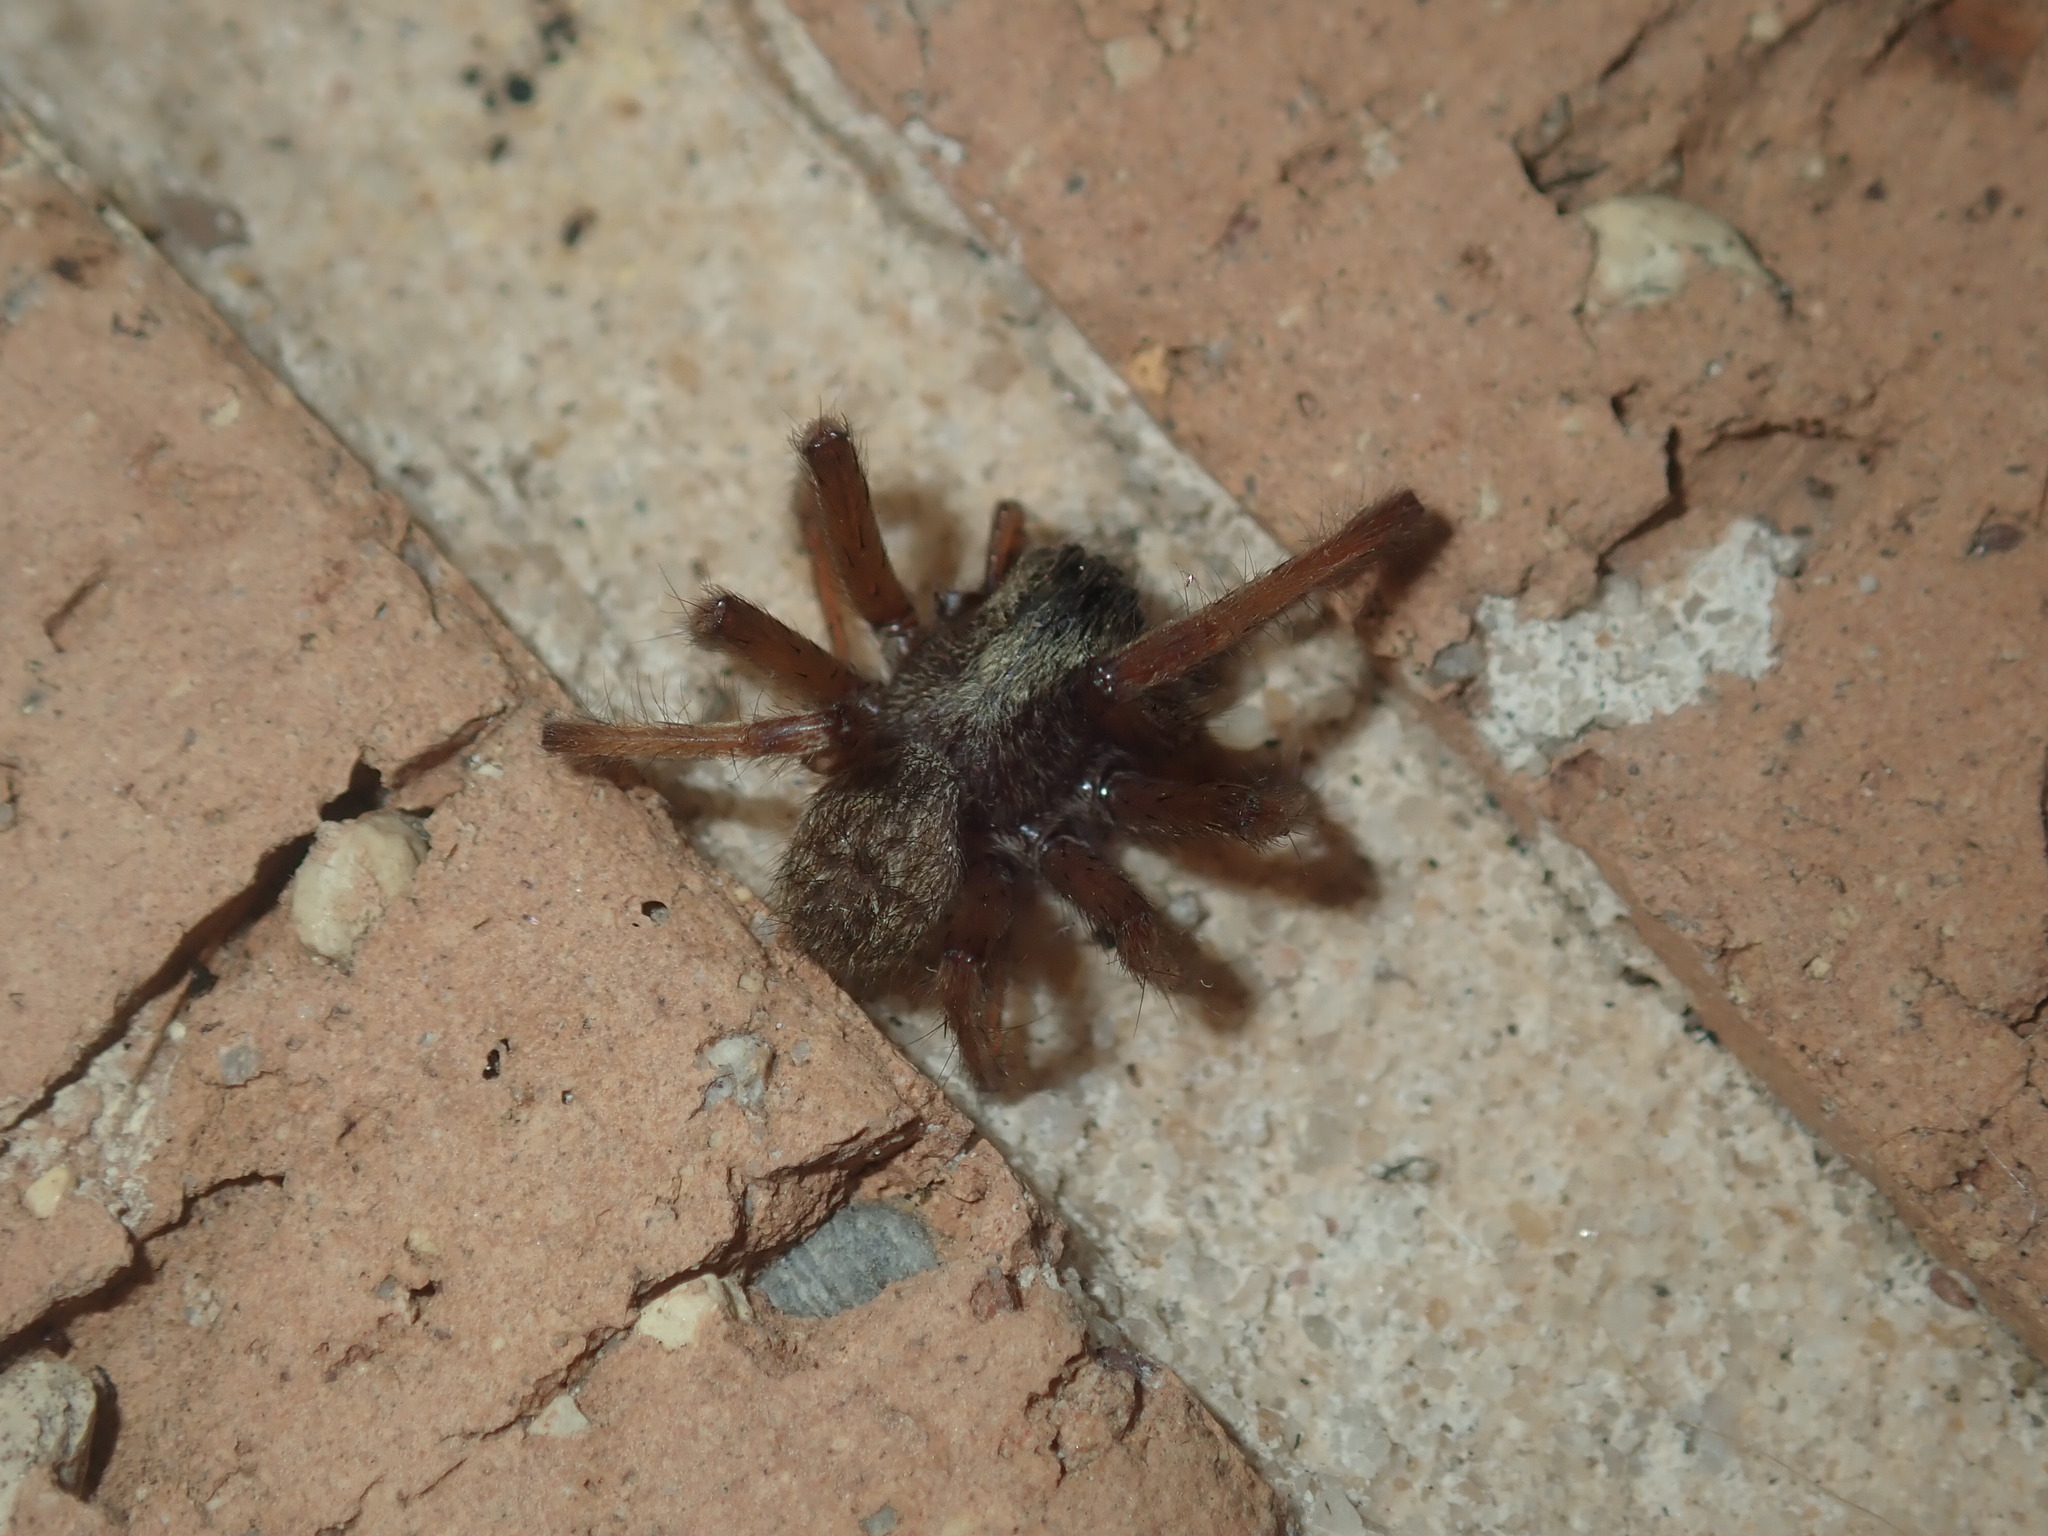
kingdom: Animalia
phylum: Arthropoda
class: Arachnida
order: Araneae
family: Desidae
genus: Badumna
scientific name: Badumna longinqua
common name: Gray house spider
